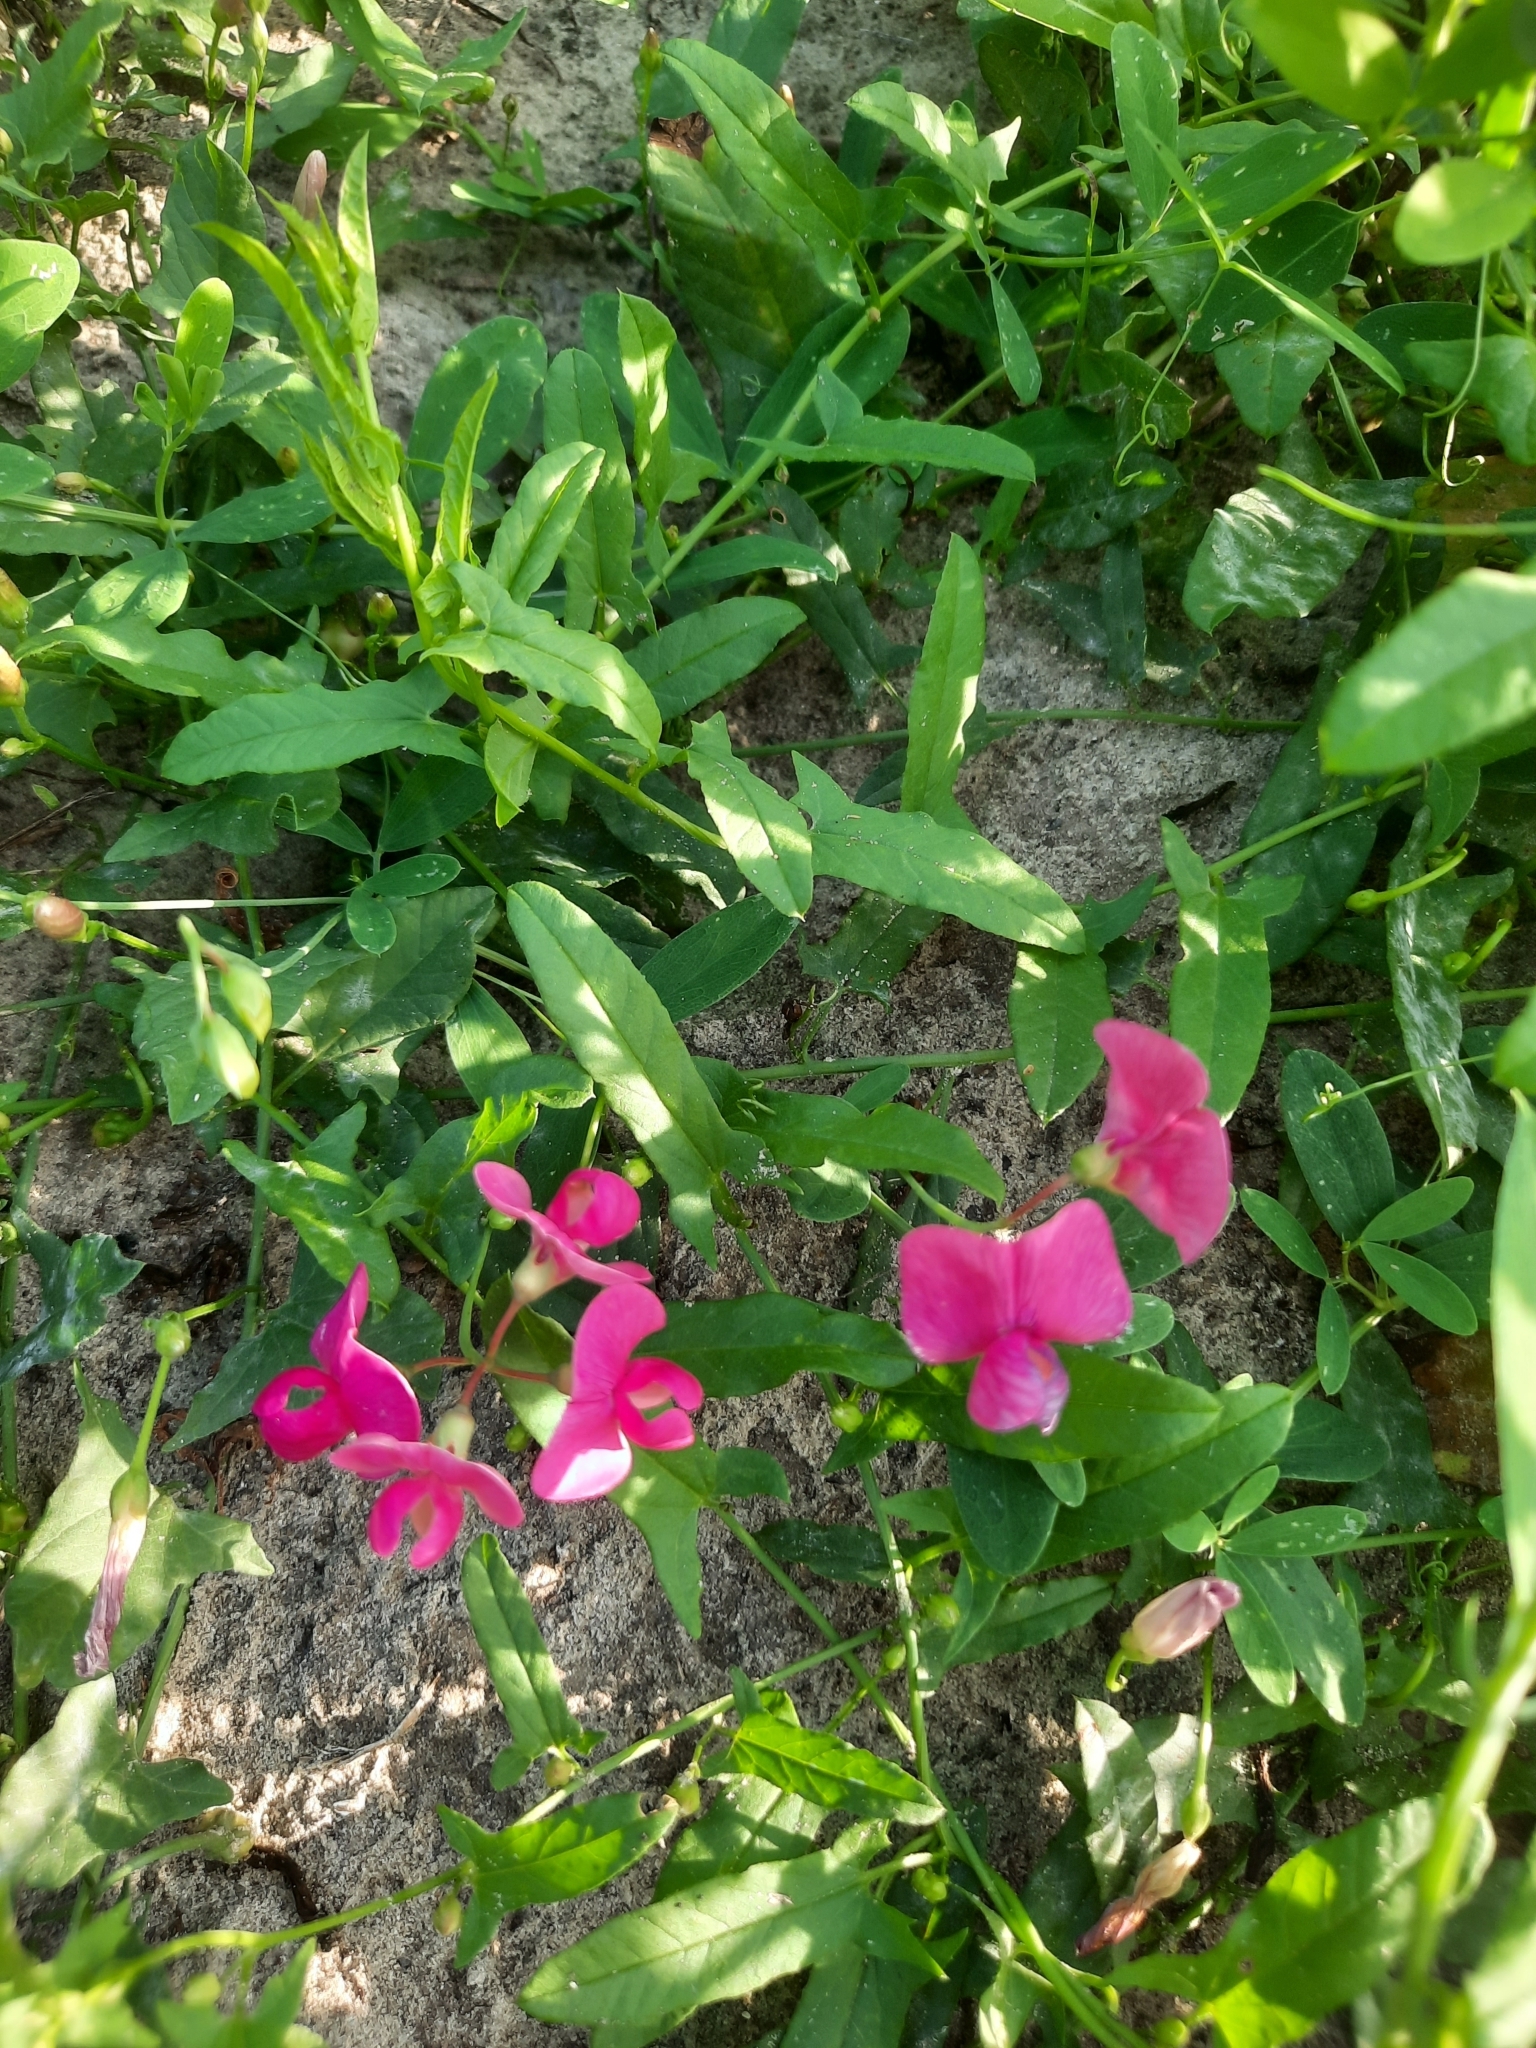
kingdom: Plantae
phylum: Tracheophyta
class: Magnoliopsida
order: Fabales
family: Fabaceae
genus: Lathyrus
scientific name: Lathyrus tuberosus
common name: Tuberous pea
